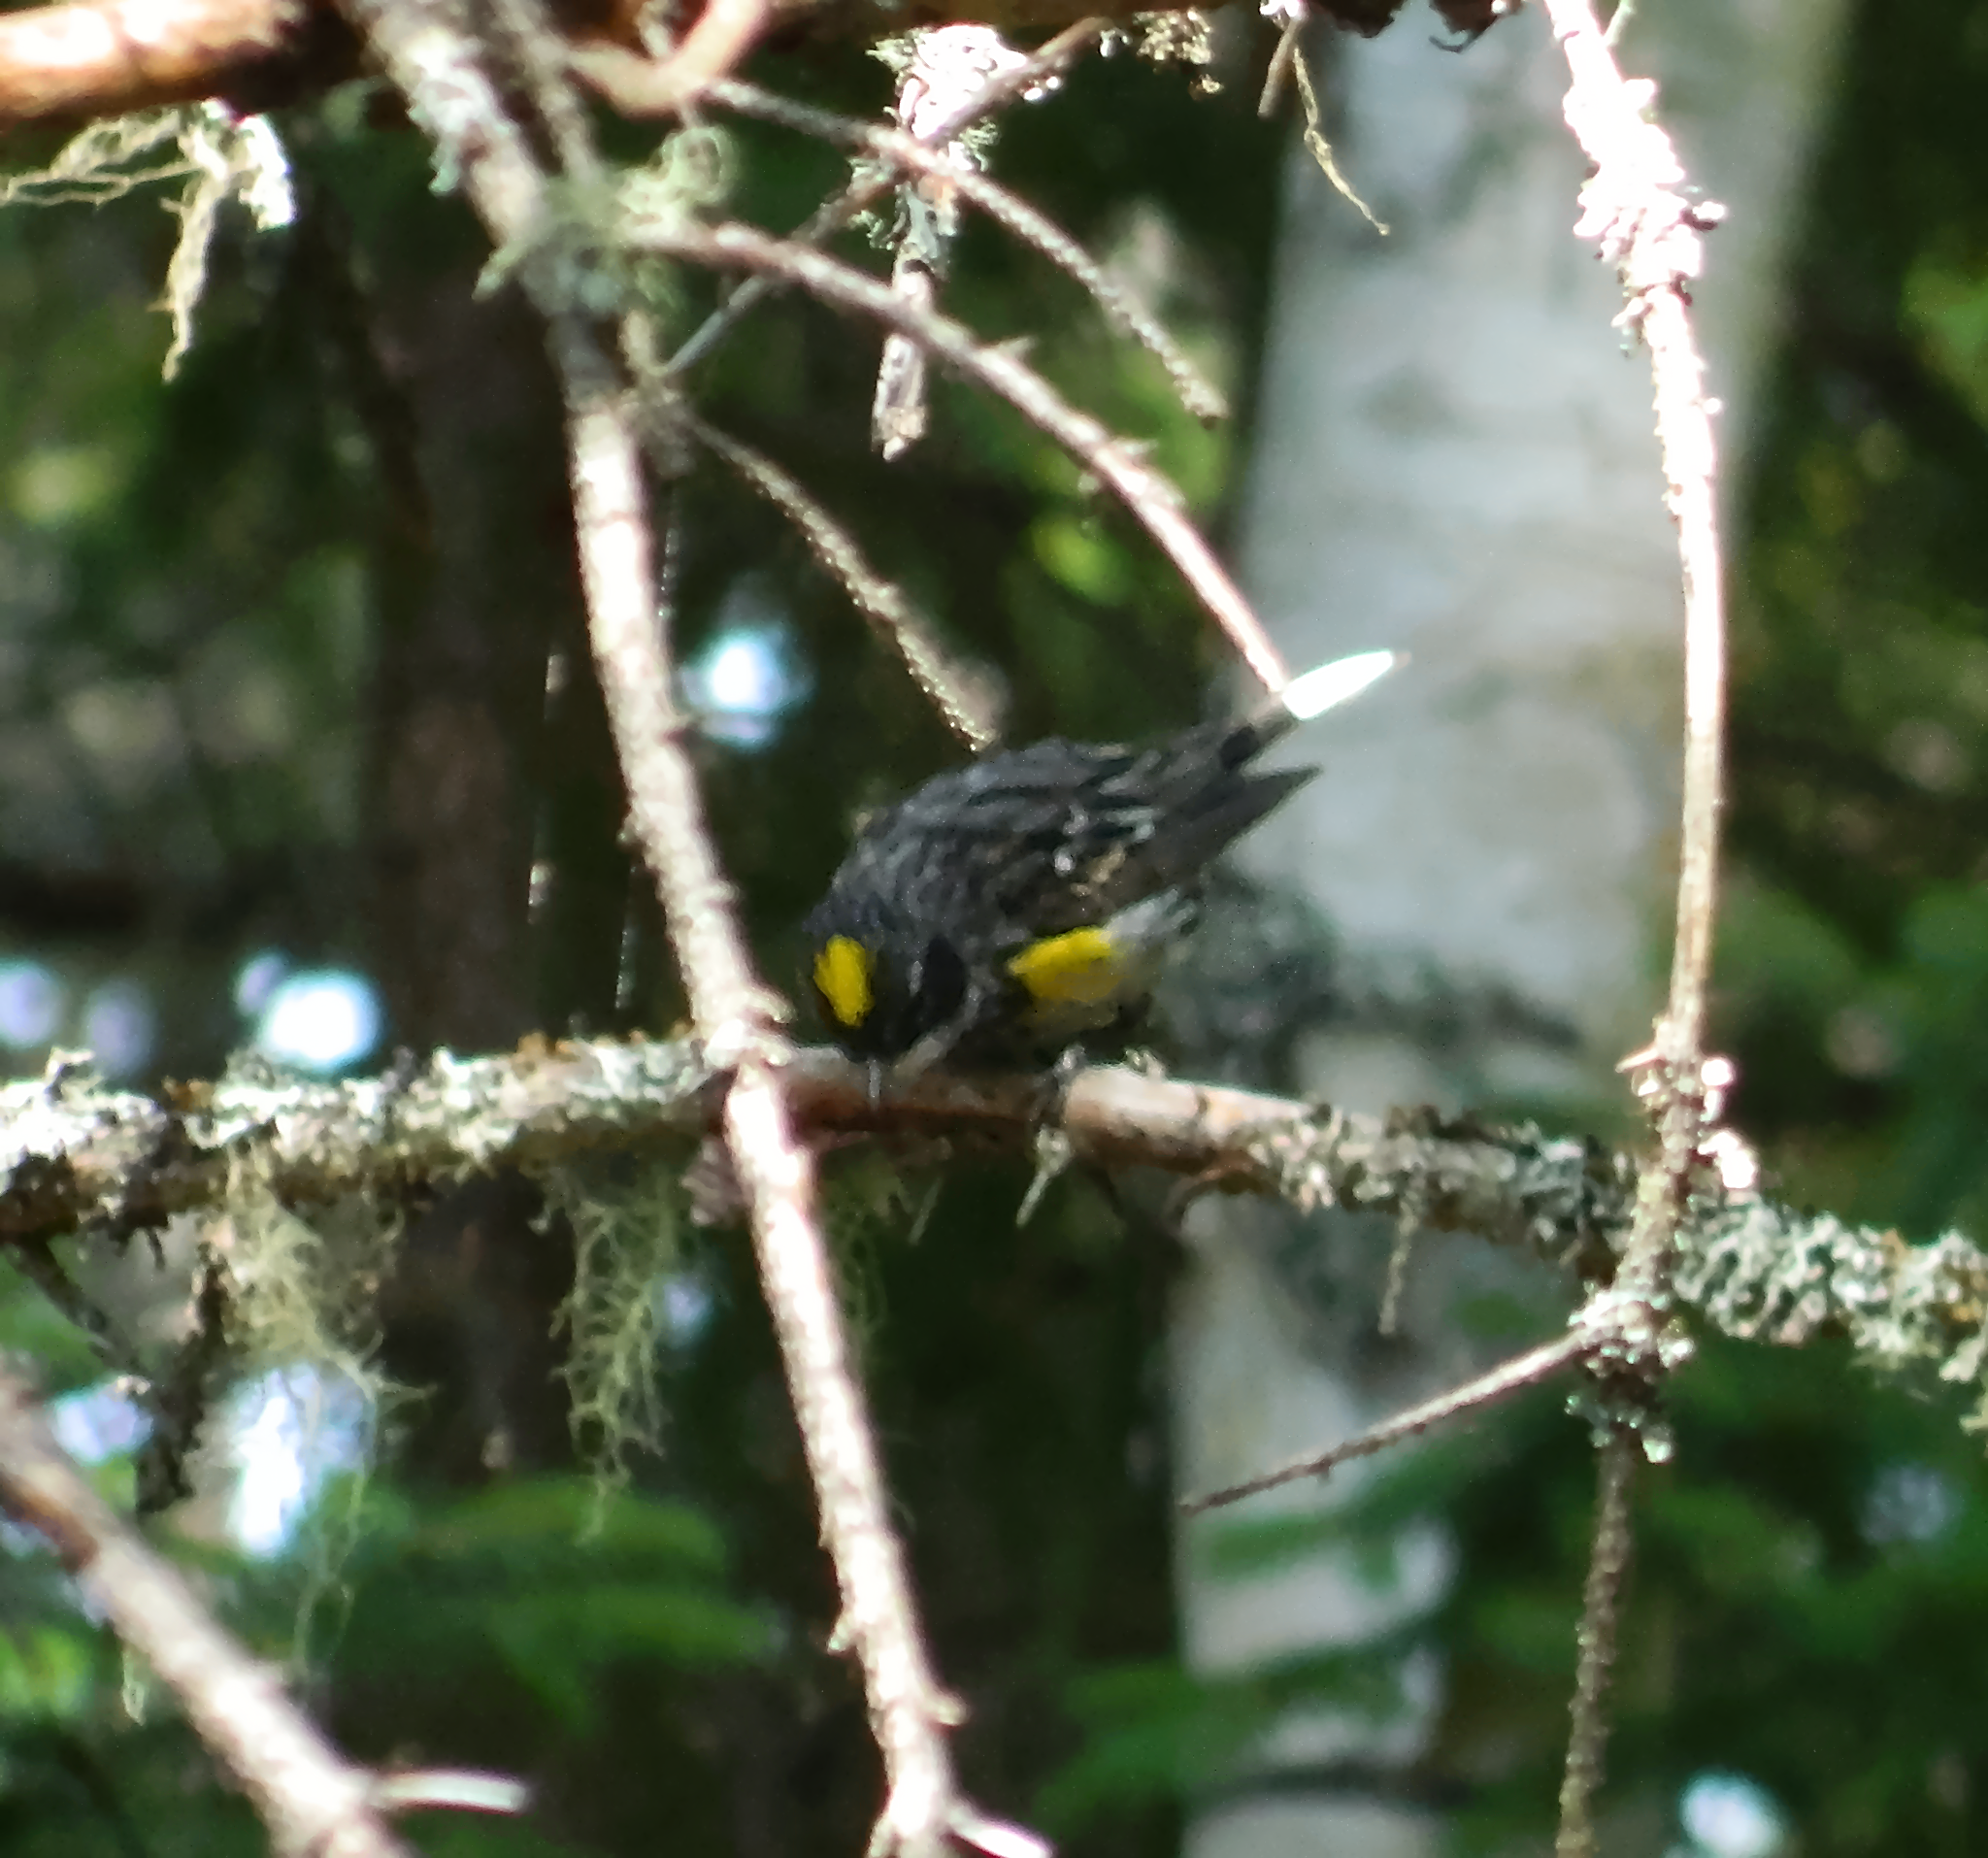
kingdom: Animalia
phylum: Chordata
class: Aves
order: Passeriformes
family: Parulidae
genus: Setophaga
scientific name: Setophaga coronata
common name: Myrtle warbler
